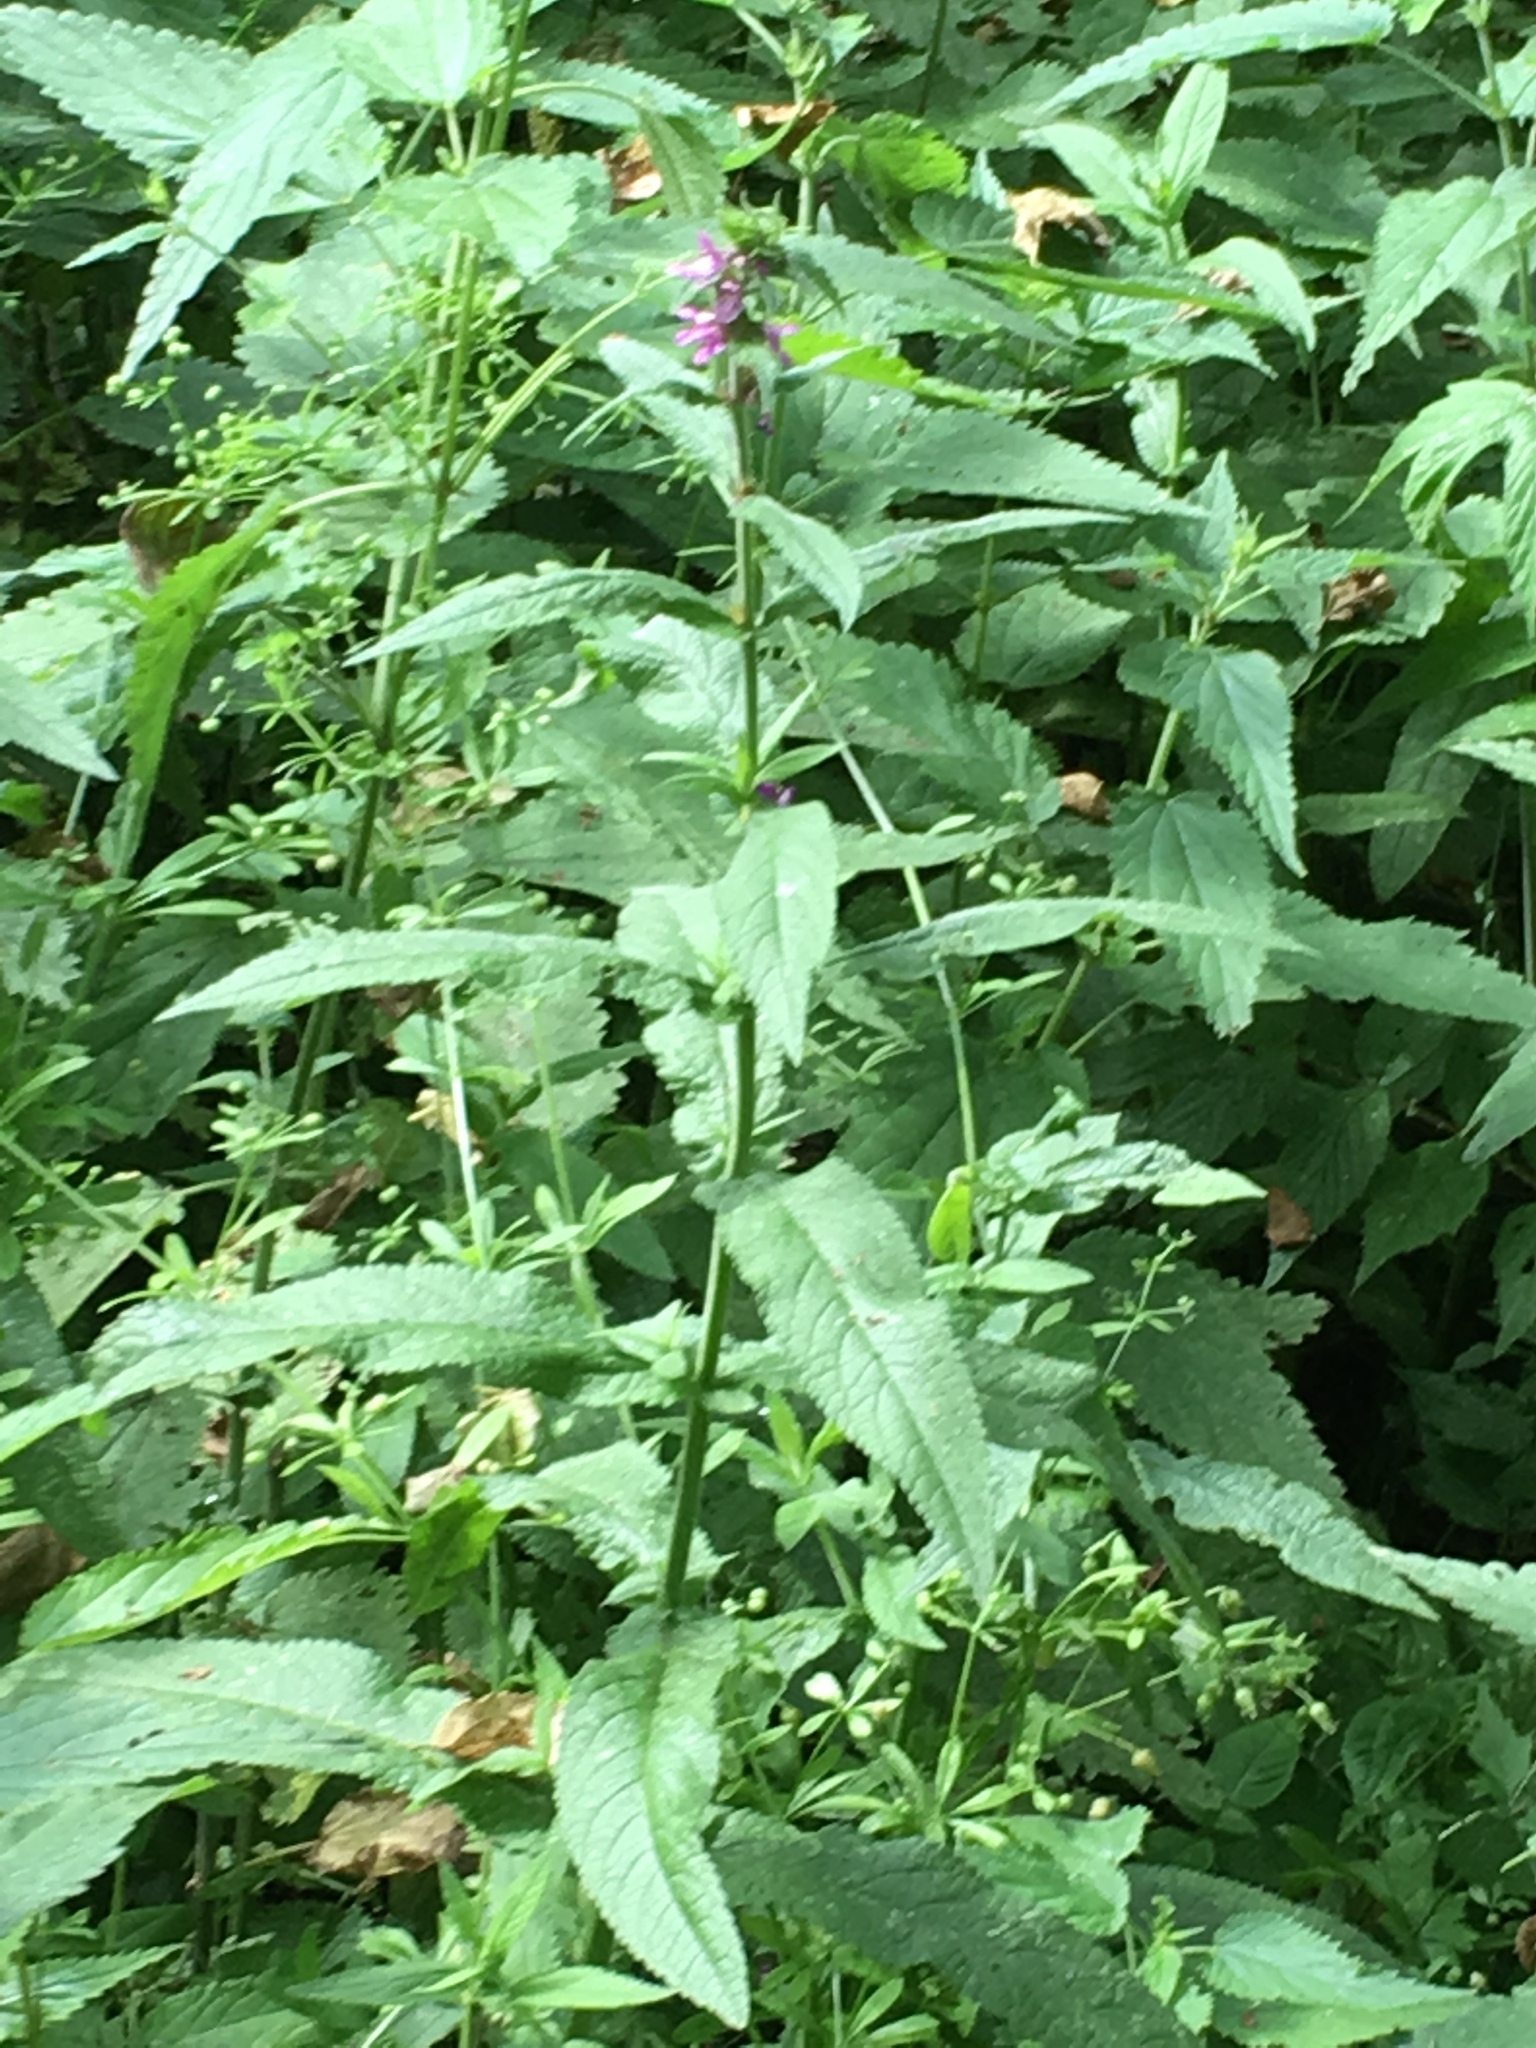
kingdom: Plantae
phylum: Tracheophyta
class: Magnoliopsida
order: Lamiales
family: Lamiaceae
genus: Stachys
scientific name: Stachys palustris
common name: Marsh woundwort
